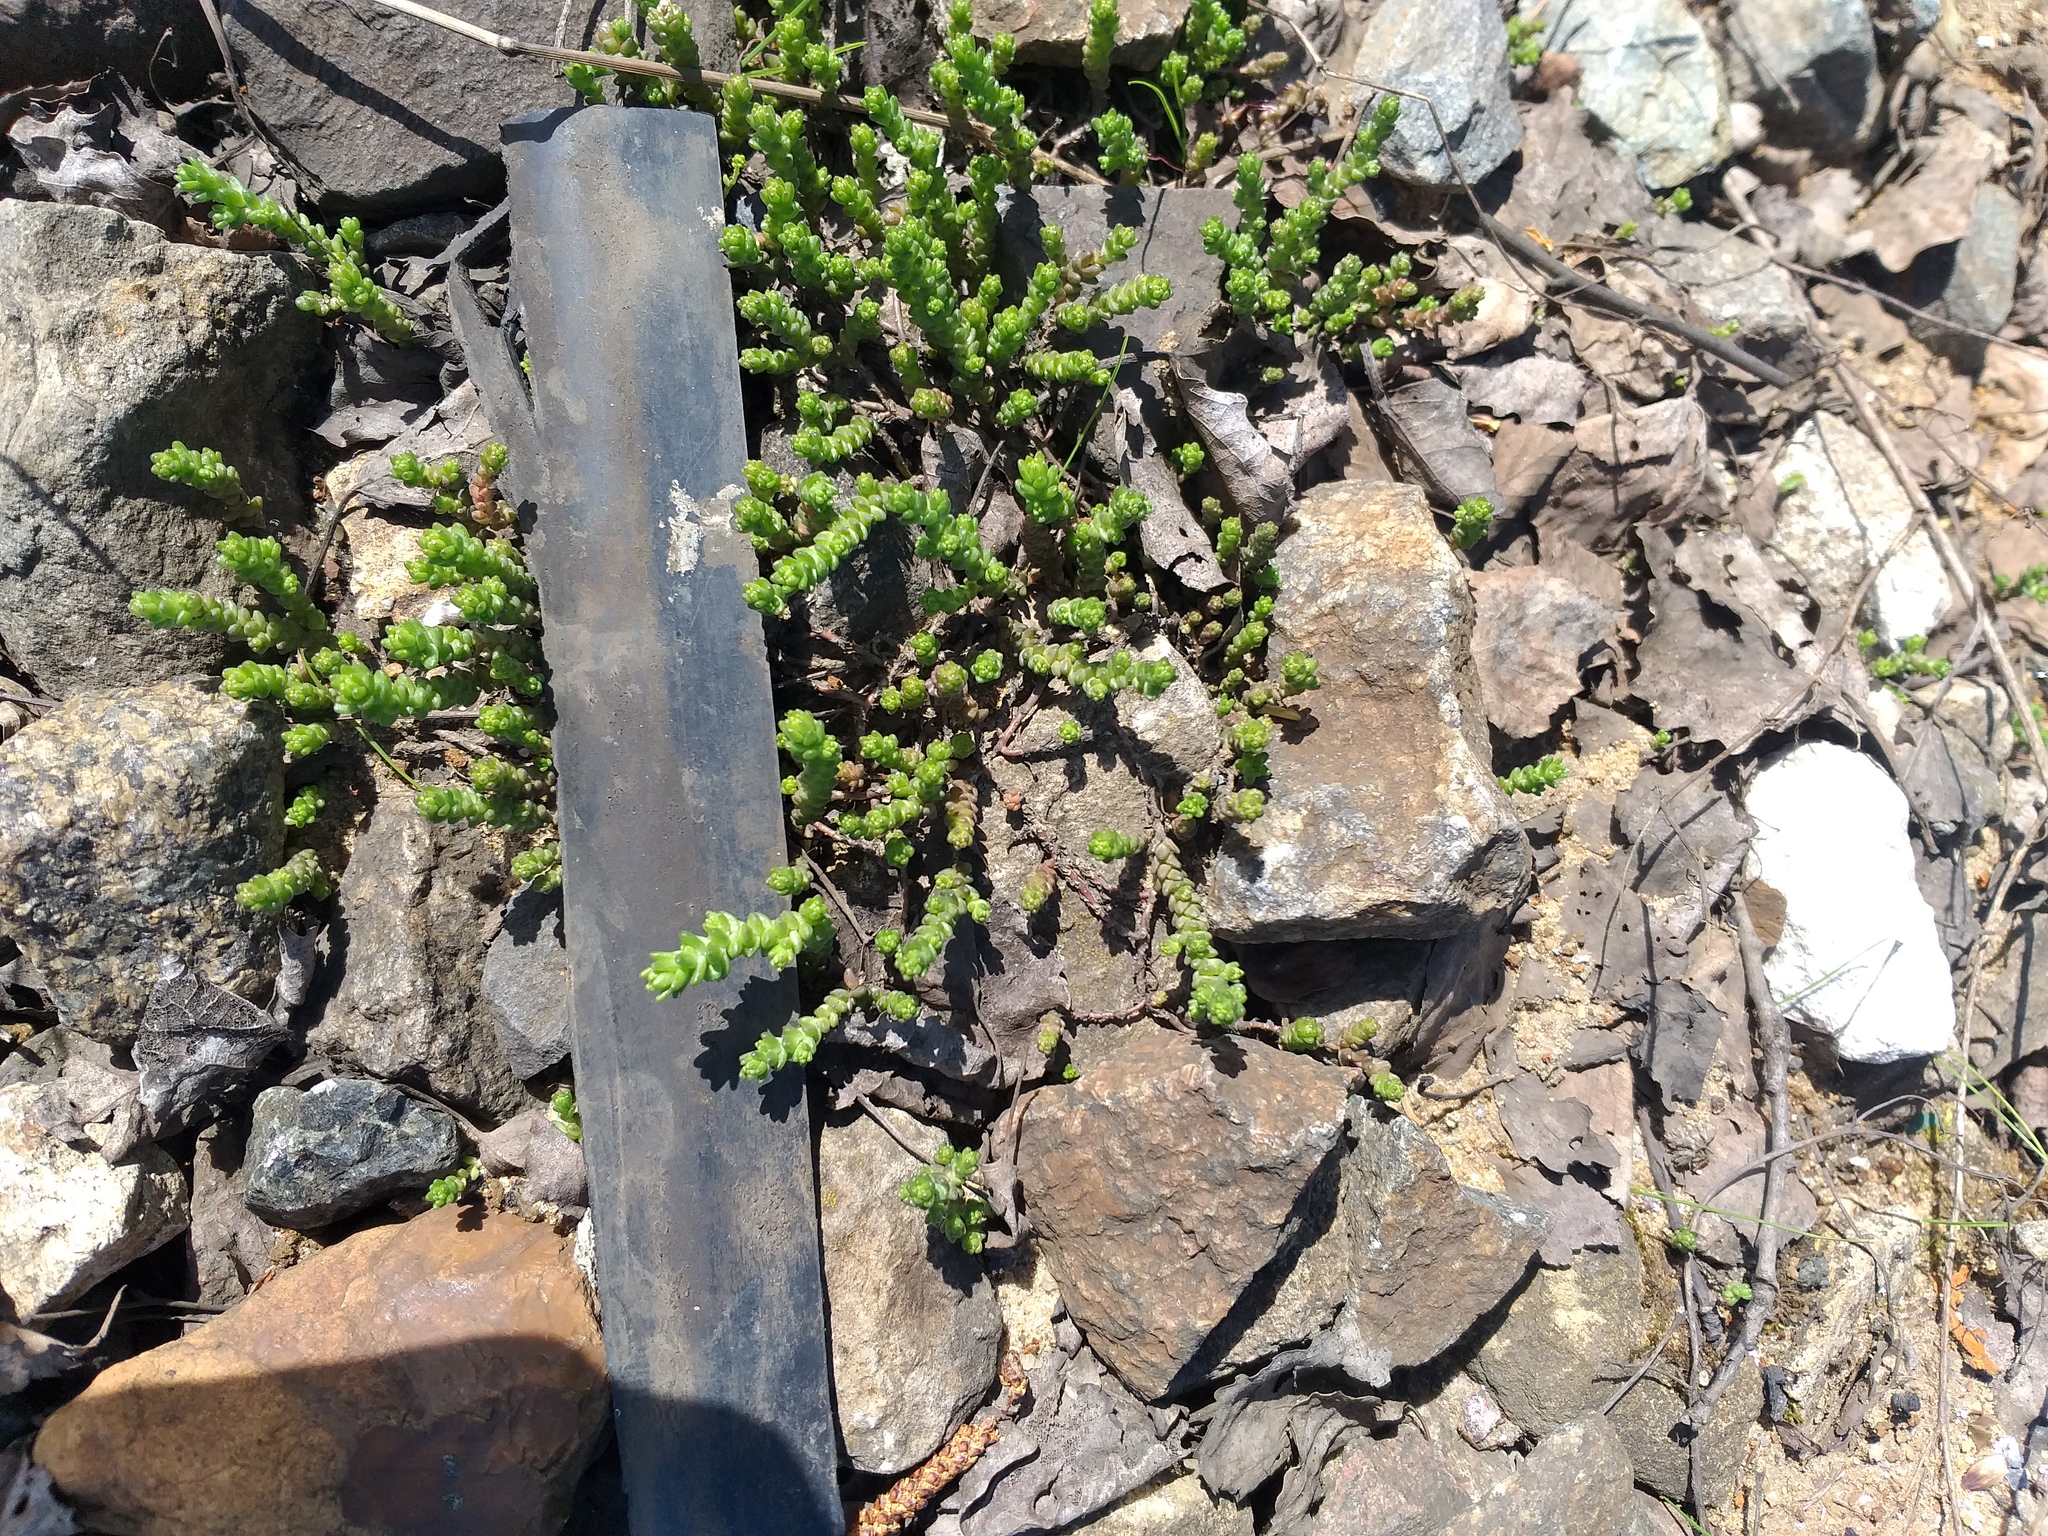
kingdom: Plantae
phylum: Tracheophyta
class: Magnoliopsida
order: Saxifragales
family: Crassulaceae
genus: Sedum
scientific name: Sedum acre
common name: Biting stonecrop
